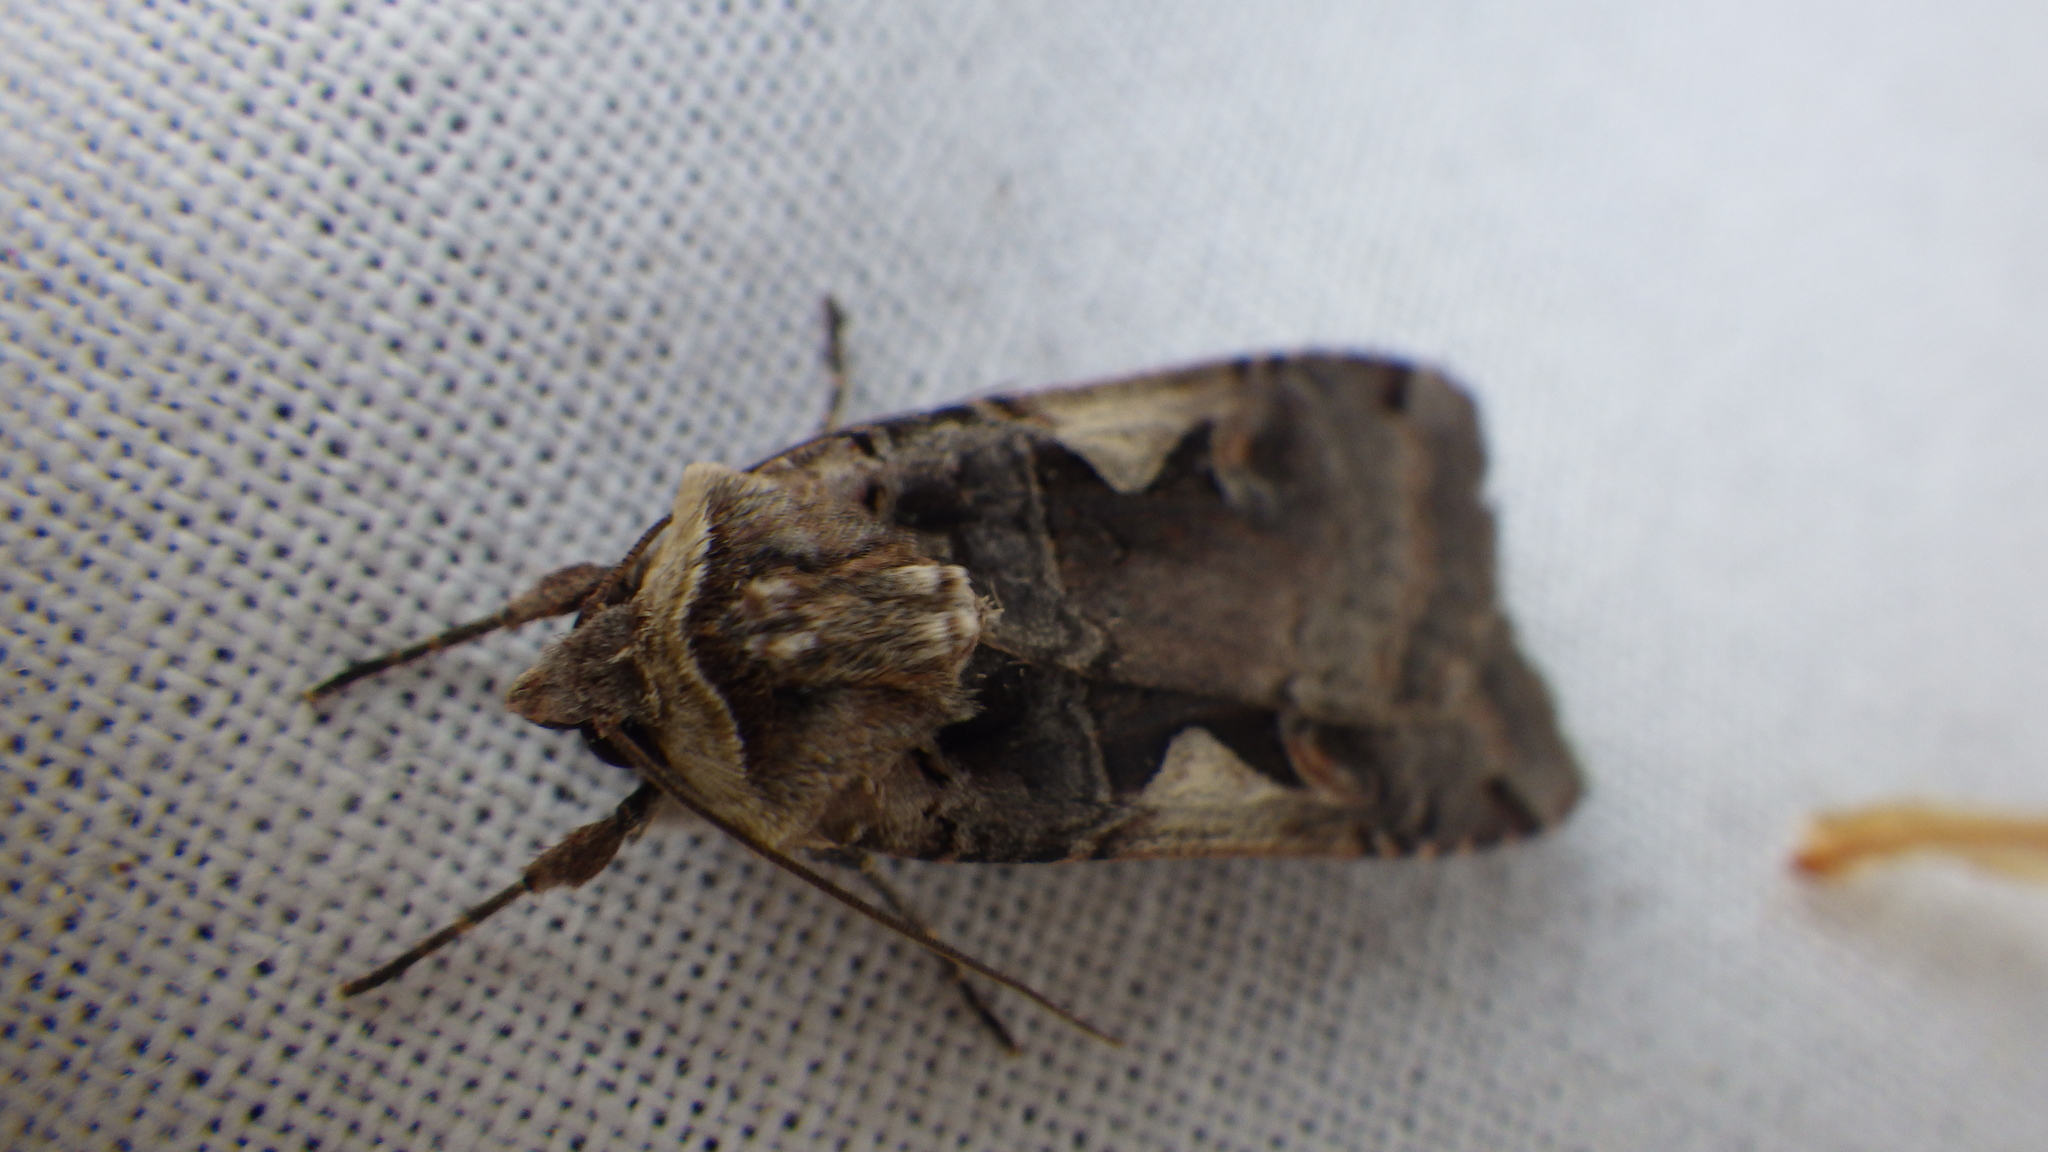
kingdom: Animalia
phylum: Arthropoda
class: Insecta
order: Lepidoptera
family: Noctuidae
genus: Xestia
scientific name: Xestia c-nigrum
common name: Setaceous hebrew character
